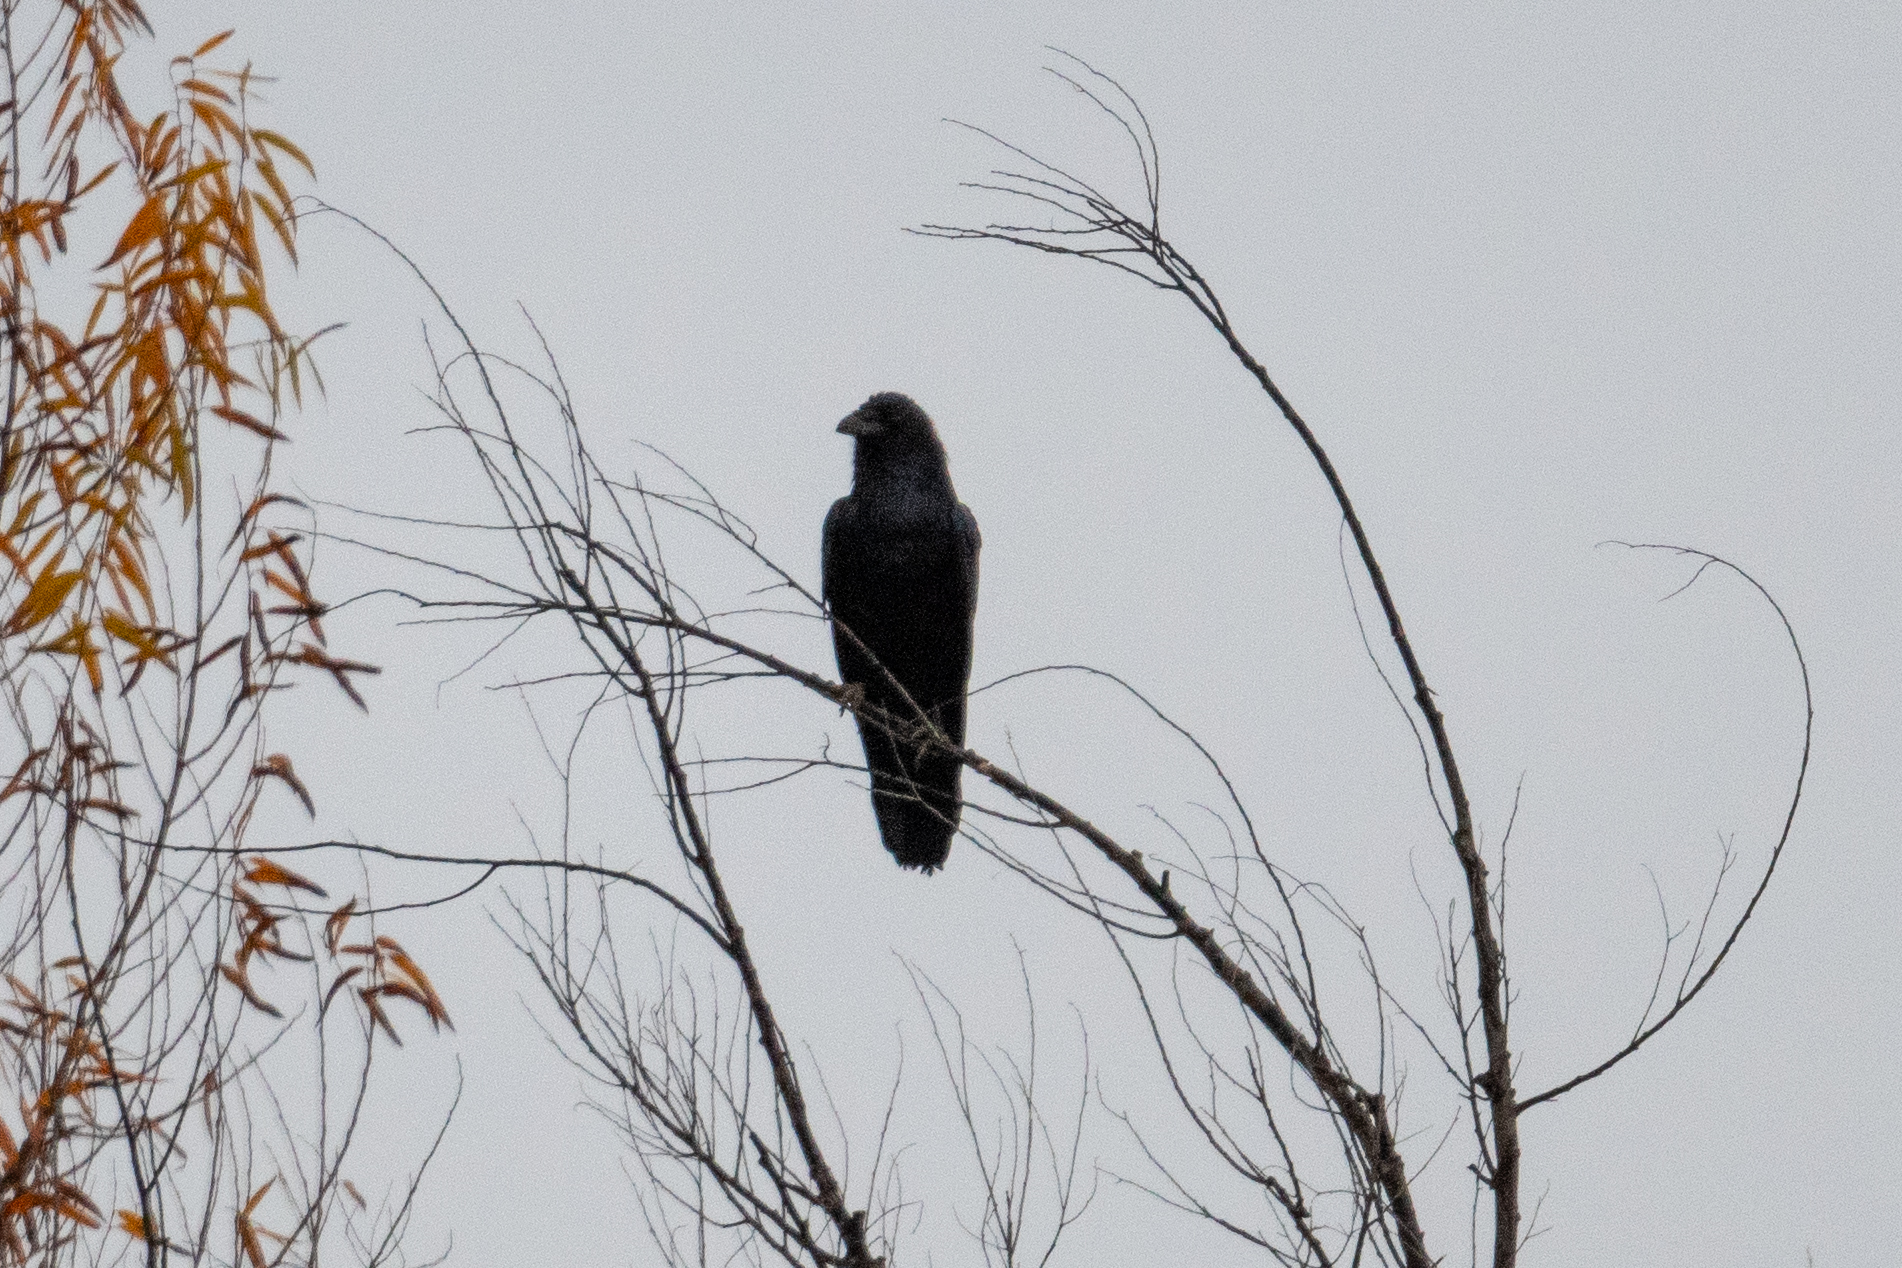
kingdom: Animalia
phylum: Chordata
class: Aves
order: Passeriformes
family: Corvidae
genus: Corvus
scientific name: Corvus corax
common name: Common raven
